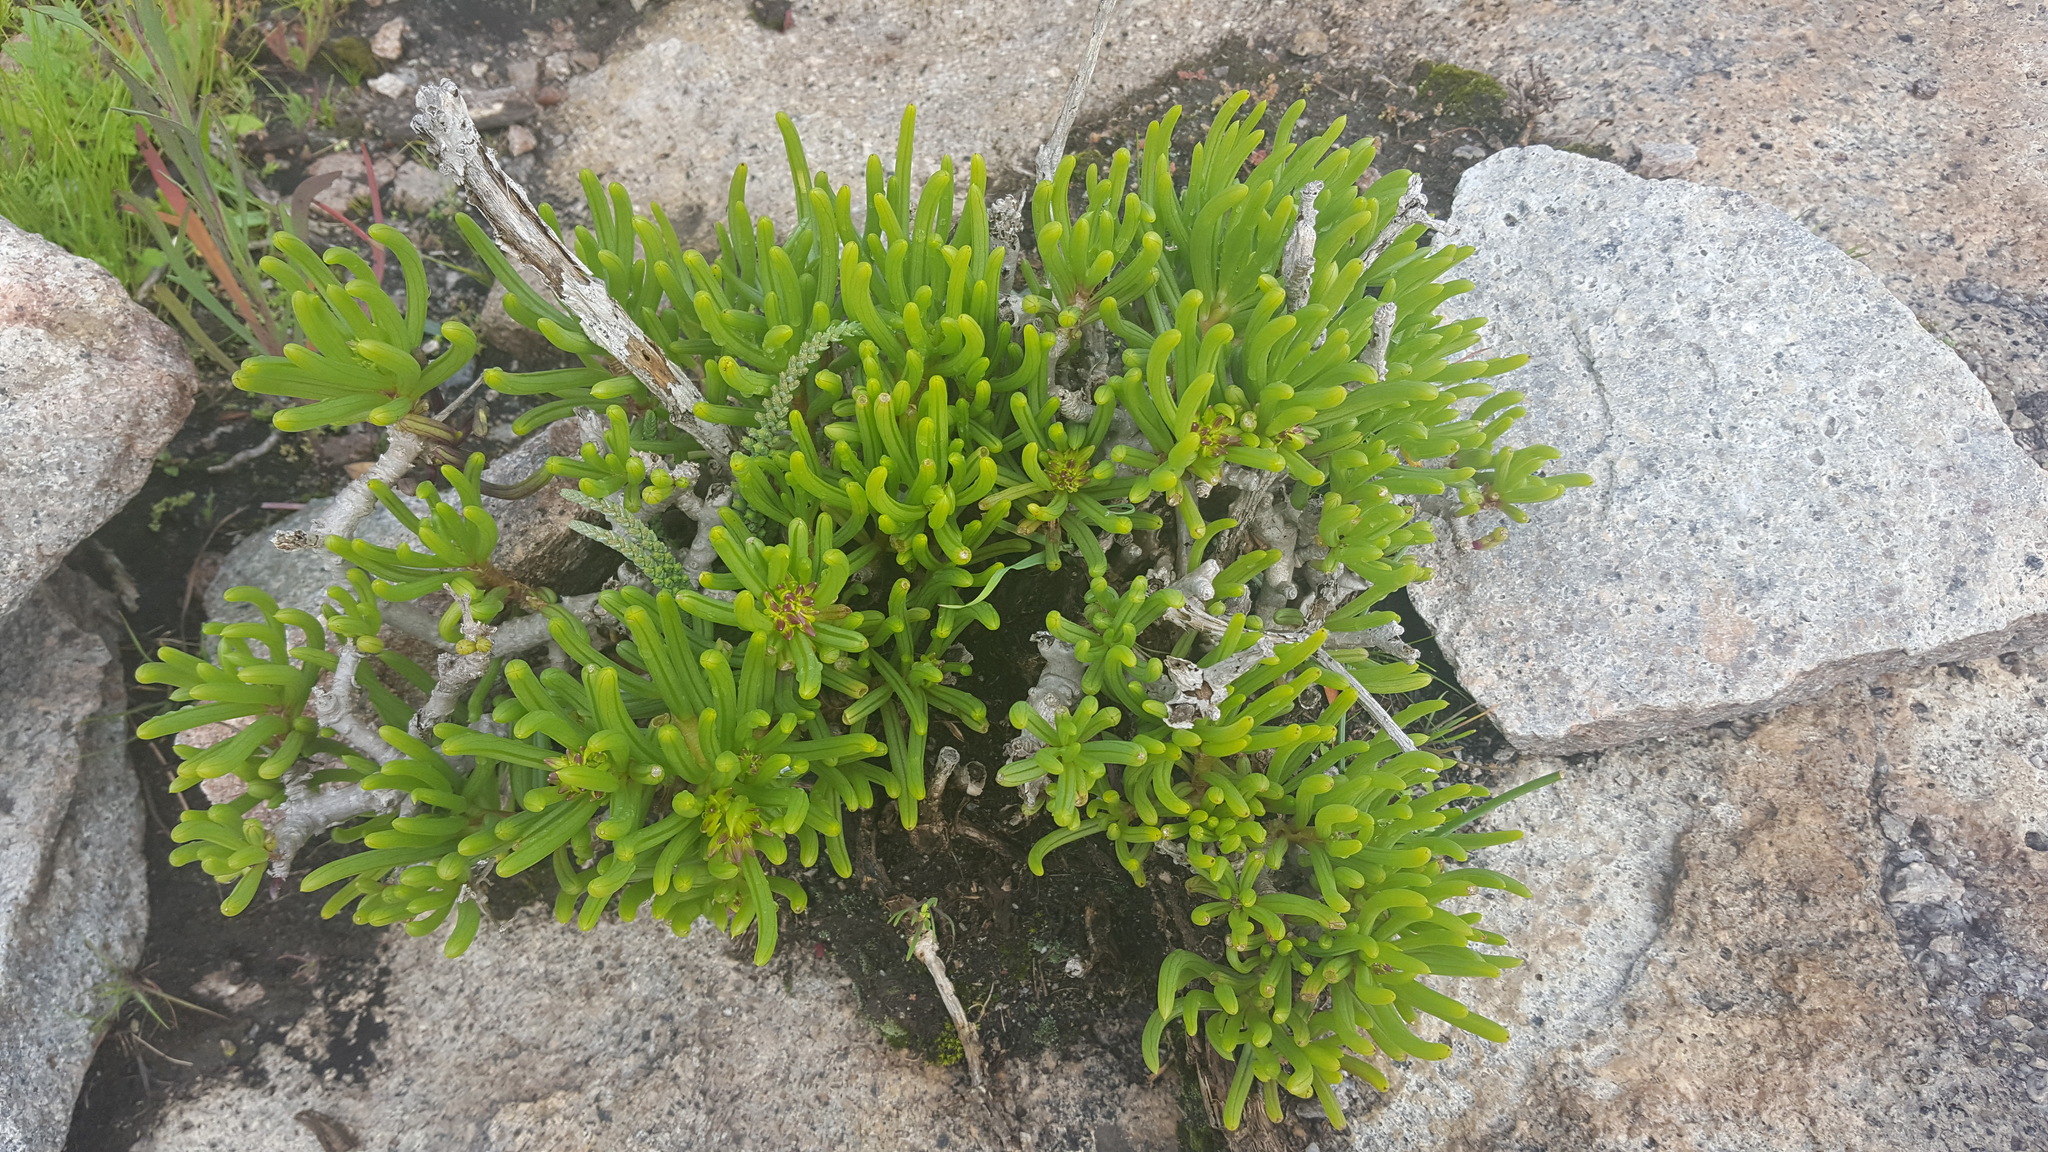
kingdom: Plantae
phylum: Tracheophyta
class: Magnoliopsida
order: Asterales
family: Asteraceae
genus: Curio
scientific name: Curio corymbifer
